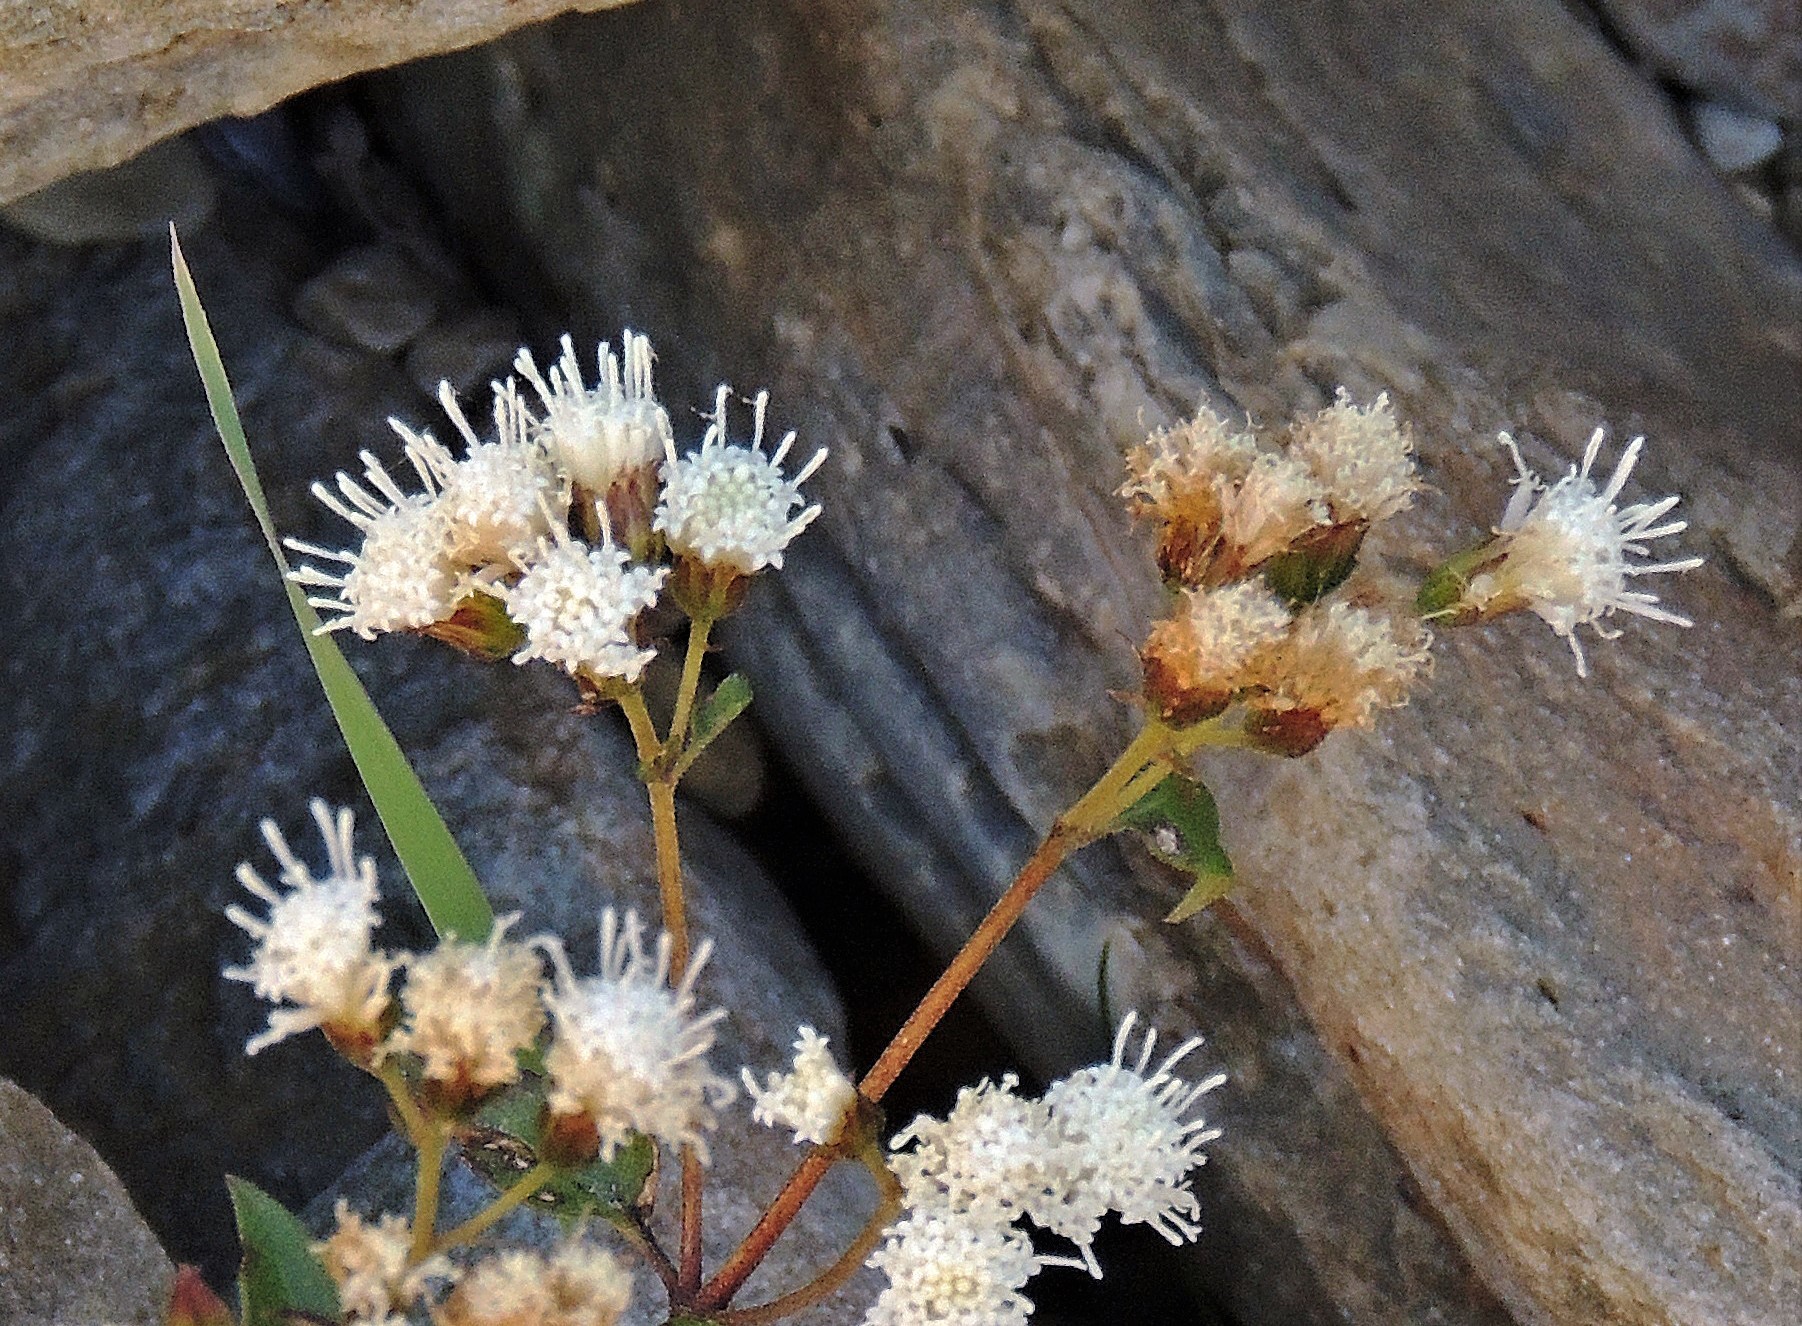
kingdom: Plantae
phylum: Tracheophyta
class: Magnoliopsida
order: Asterales
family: Asteraceae
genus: Ageratina
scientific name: Ageratina glechonophylla
